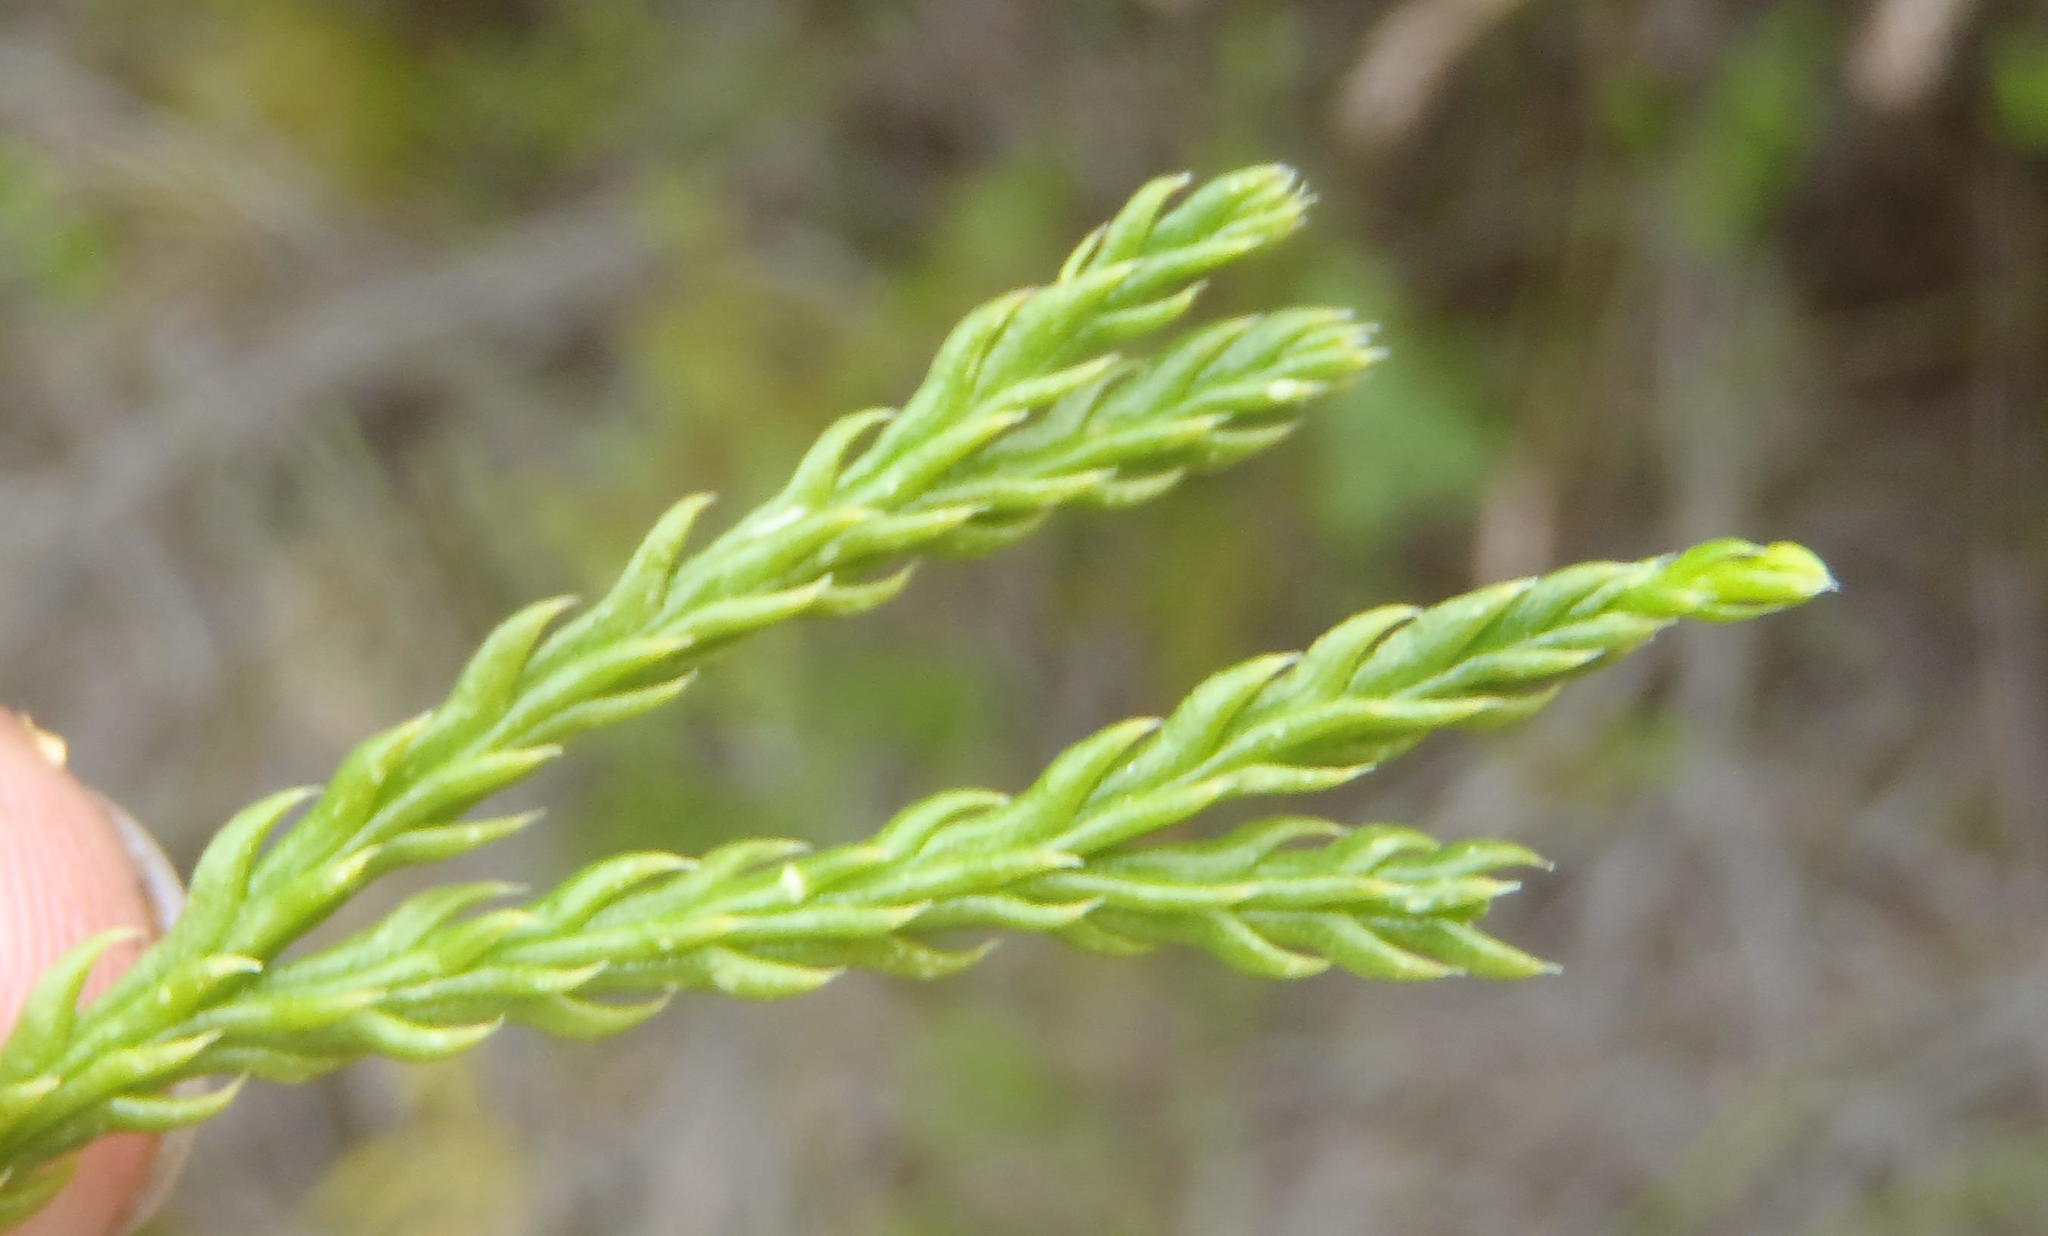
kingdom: Plantae
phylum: Tracheophyta
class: Lycopodiopsida
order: Lycopodiales
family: Lycopodiaceae
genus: Diphasiastrum
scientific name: Diphasiastrum zanclophyllum
